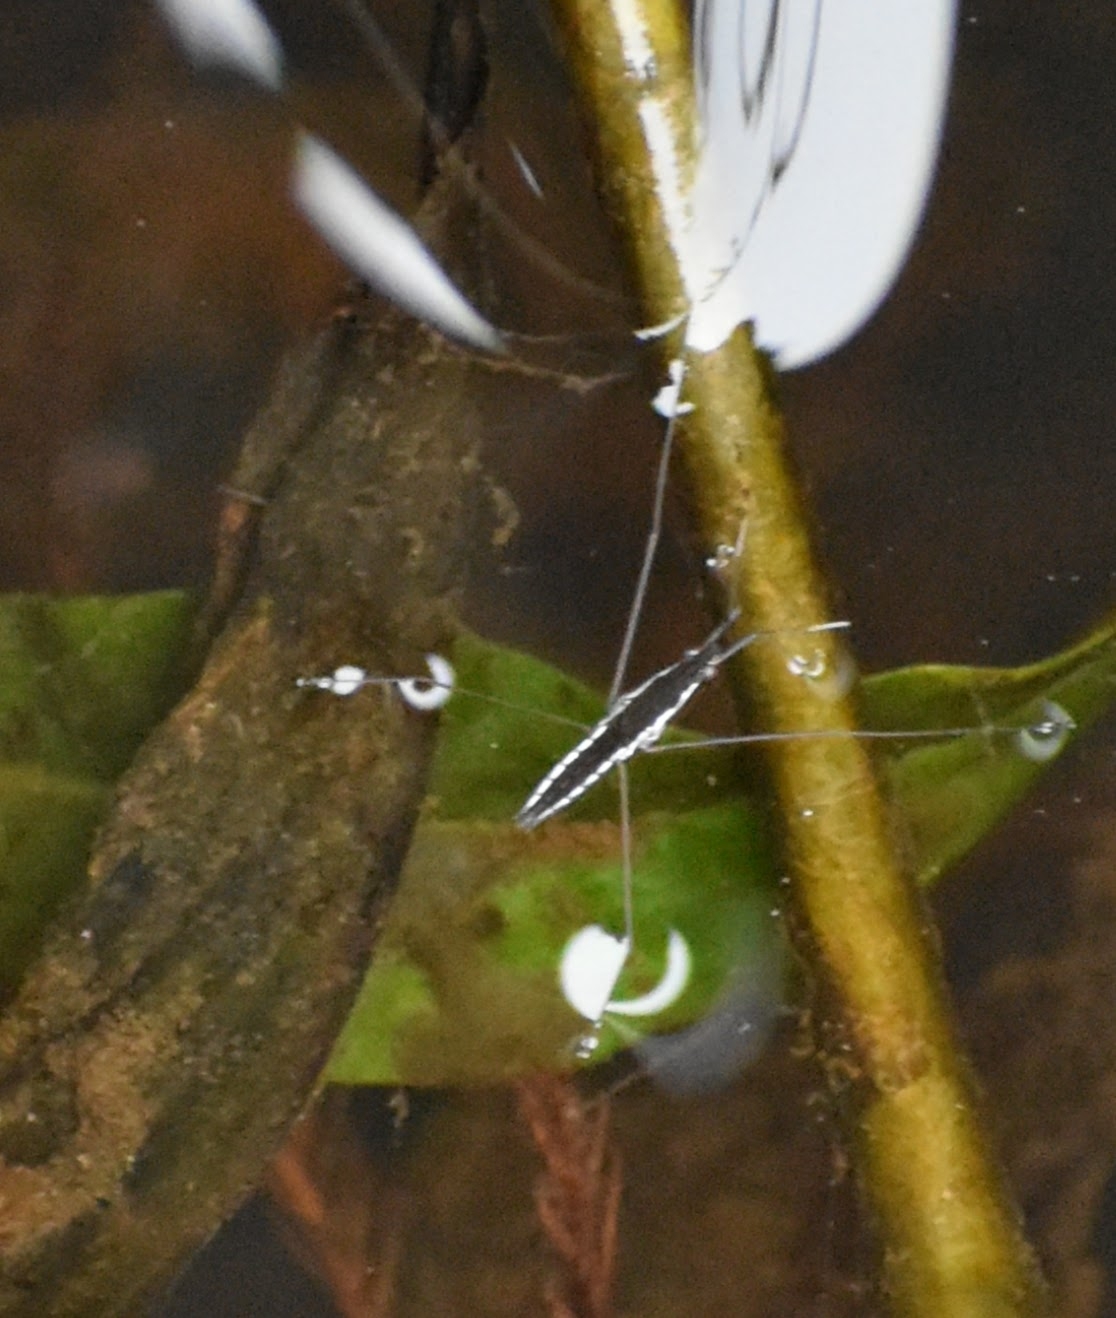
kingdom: Animalia
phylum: Arthropoda
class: Insecta
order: Hemiptera
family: Gerridae
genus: Limnoporus
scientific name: Limnoporus canaliculatus
